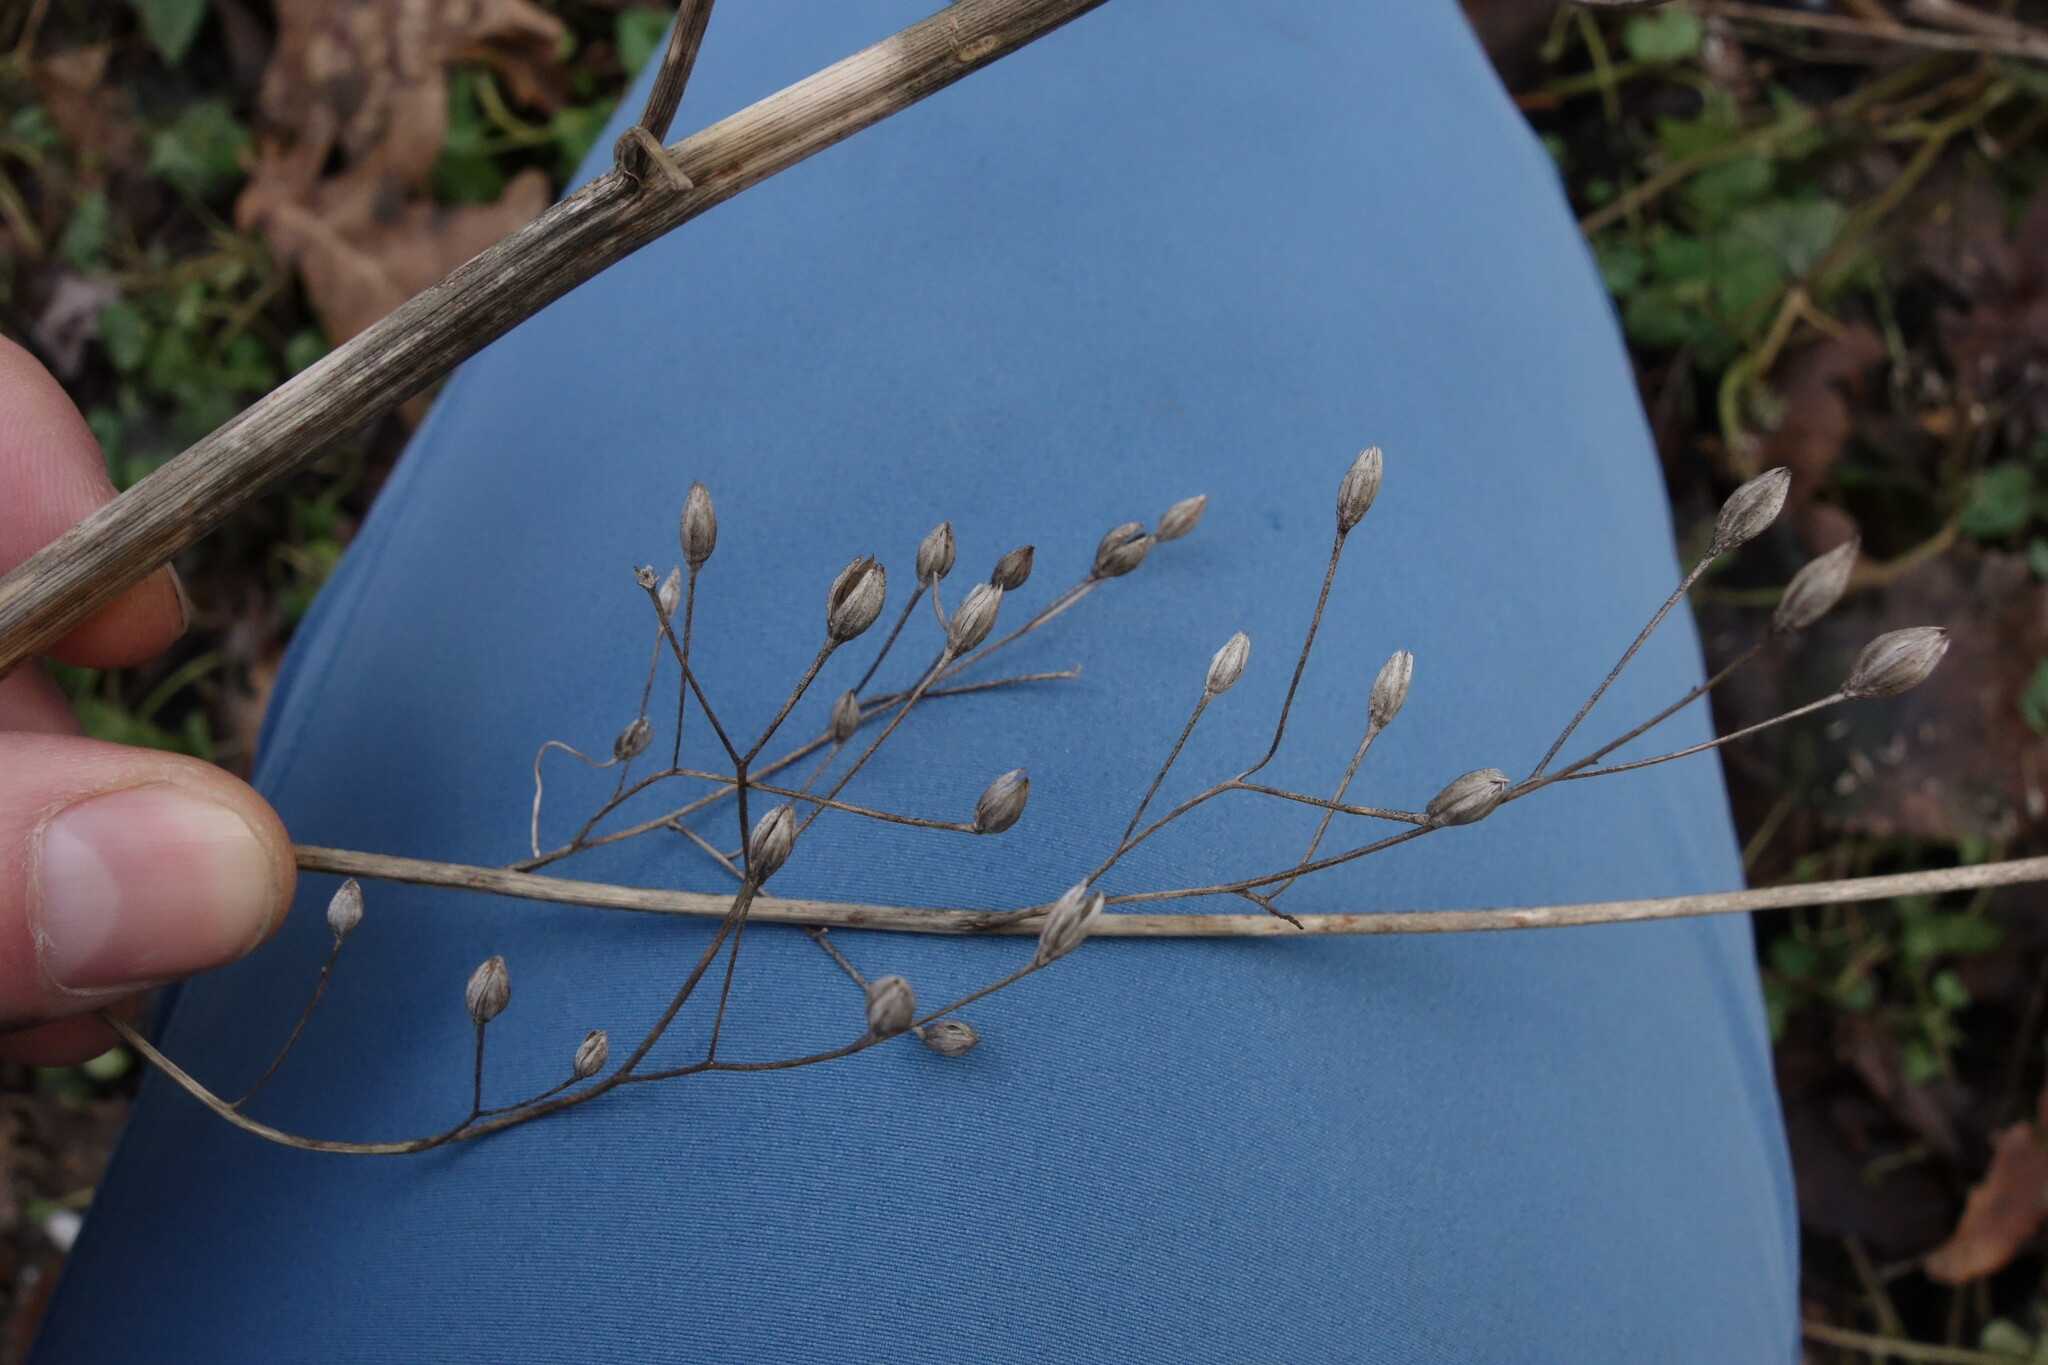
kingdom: Plantae
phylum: Tracheophyta
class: Magnoliopsida
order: Asterales
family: Asteraceae
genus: Lapsana
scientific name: Lapsana communis
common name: Nipplewort
